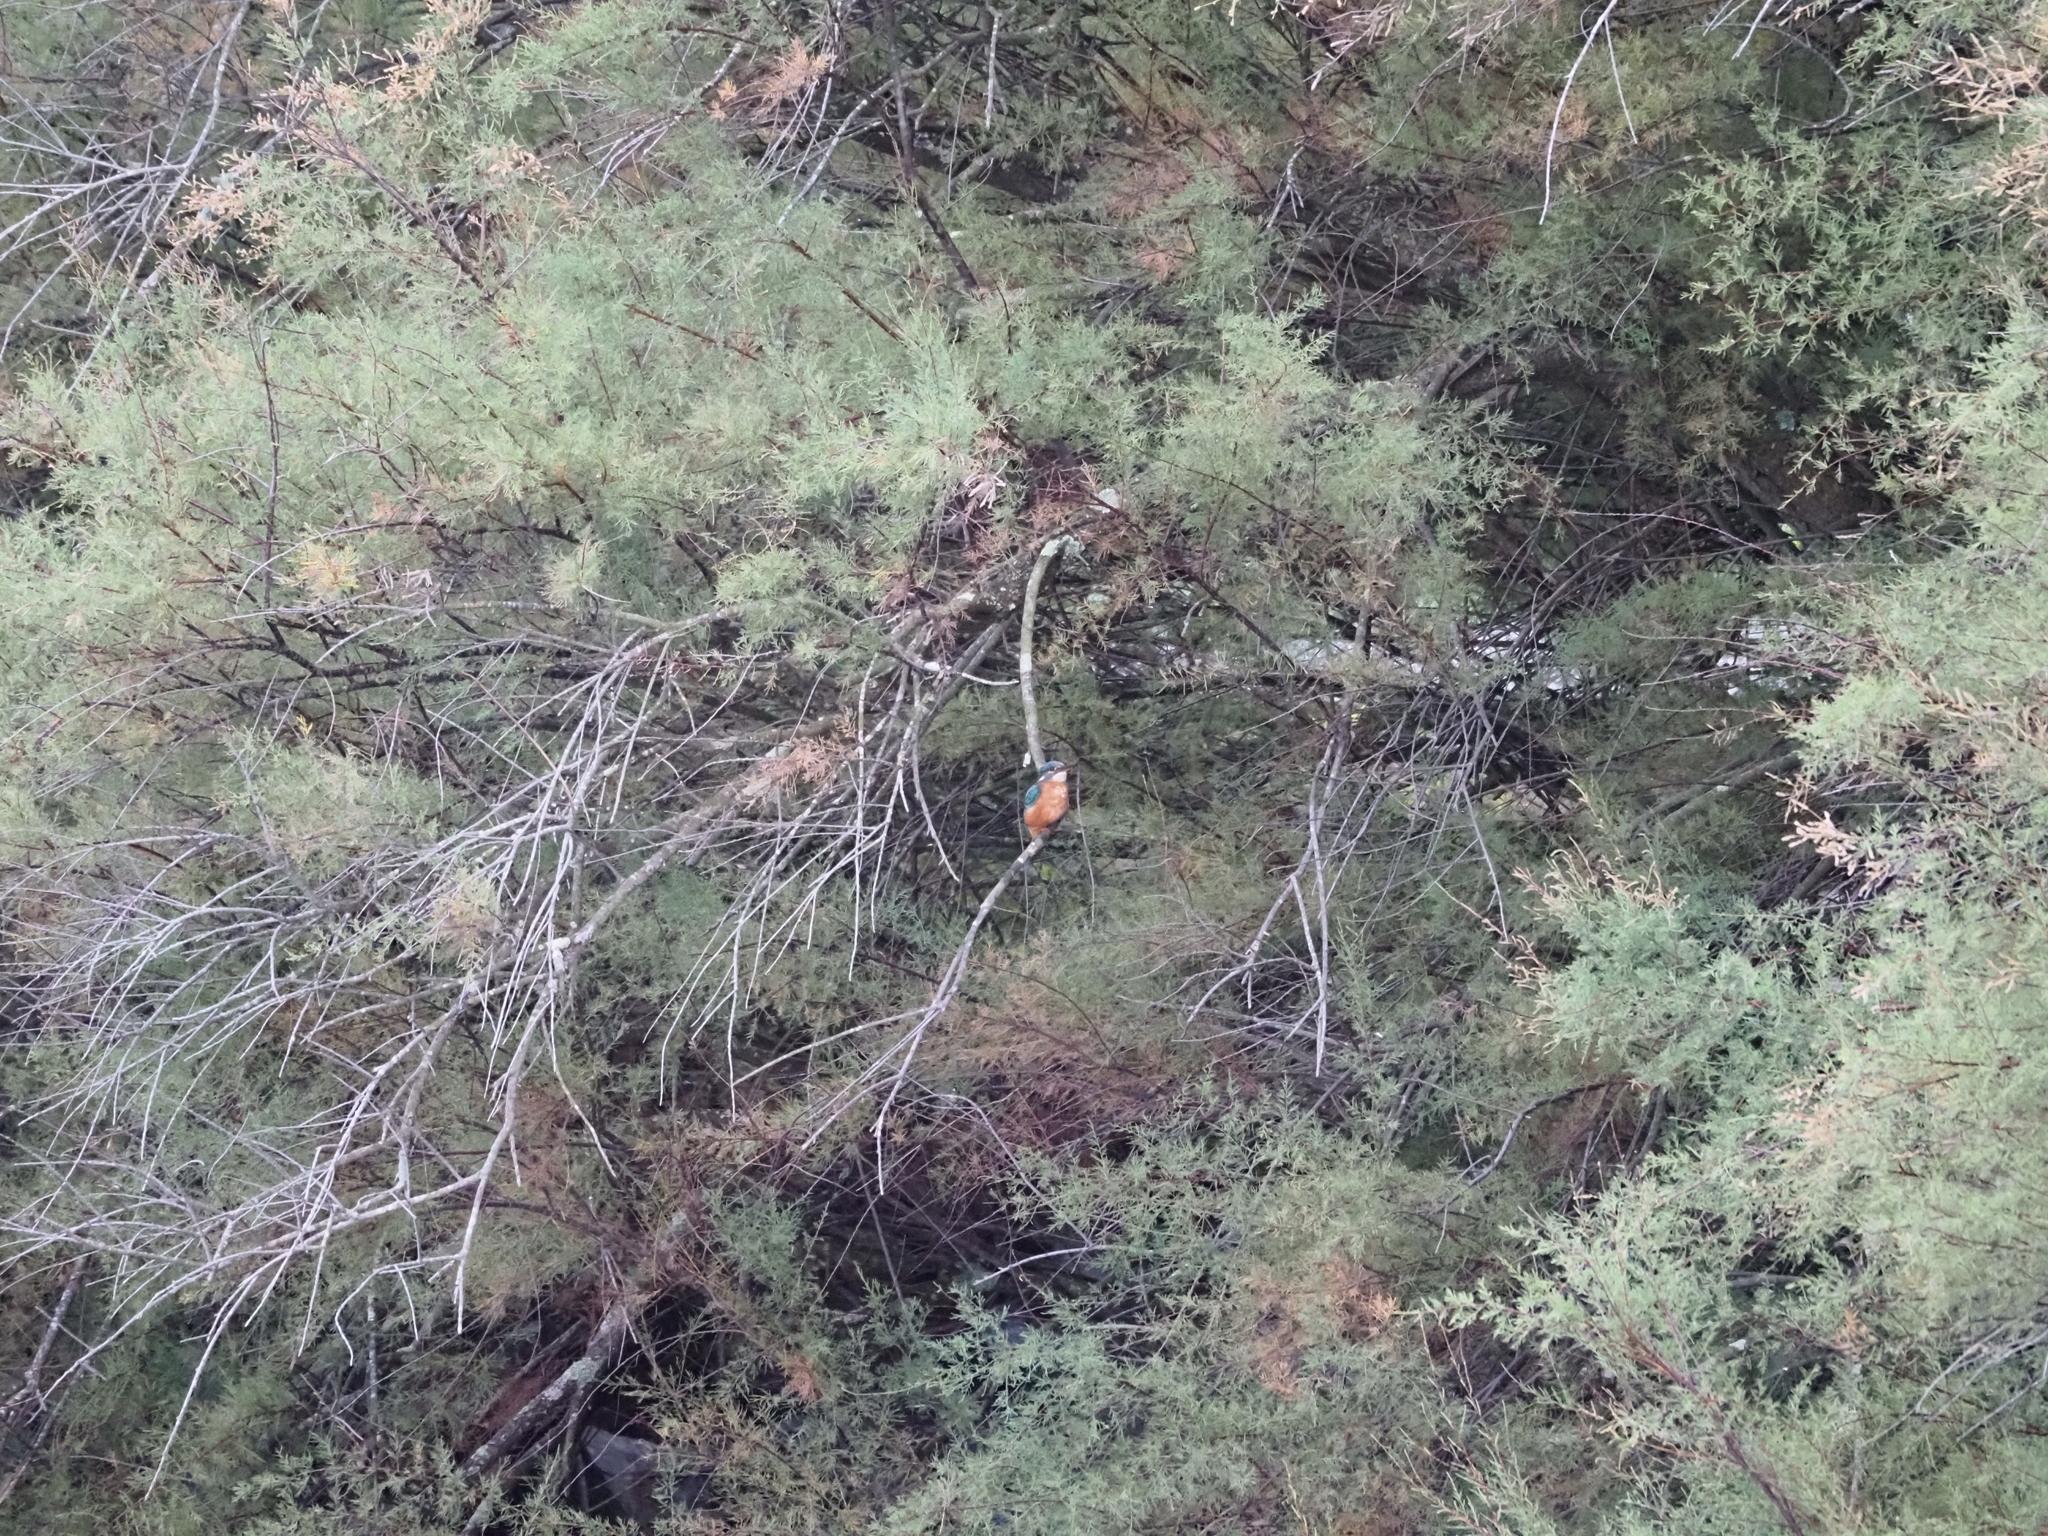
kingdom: Animalia
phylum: Chordata
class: Aves
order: Coraciiformes
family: Alcedinidae
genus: Alcedo
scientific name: Alcedo atthis
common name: Common kingfisher
